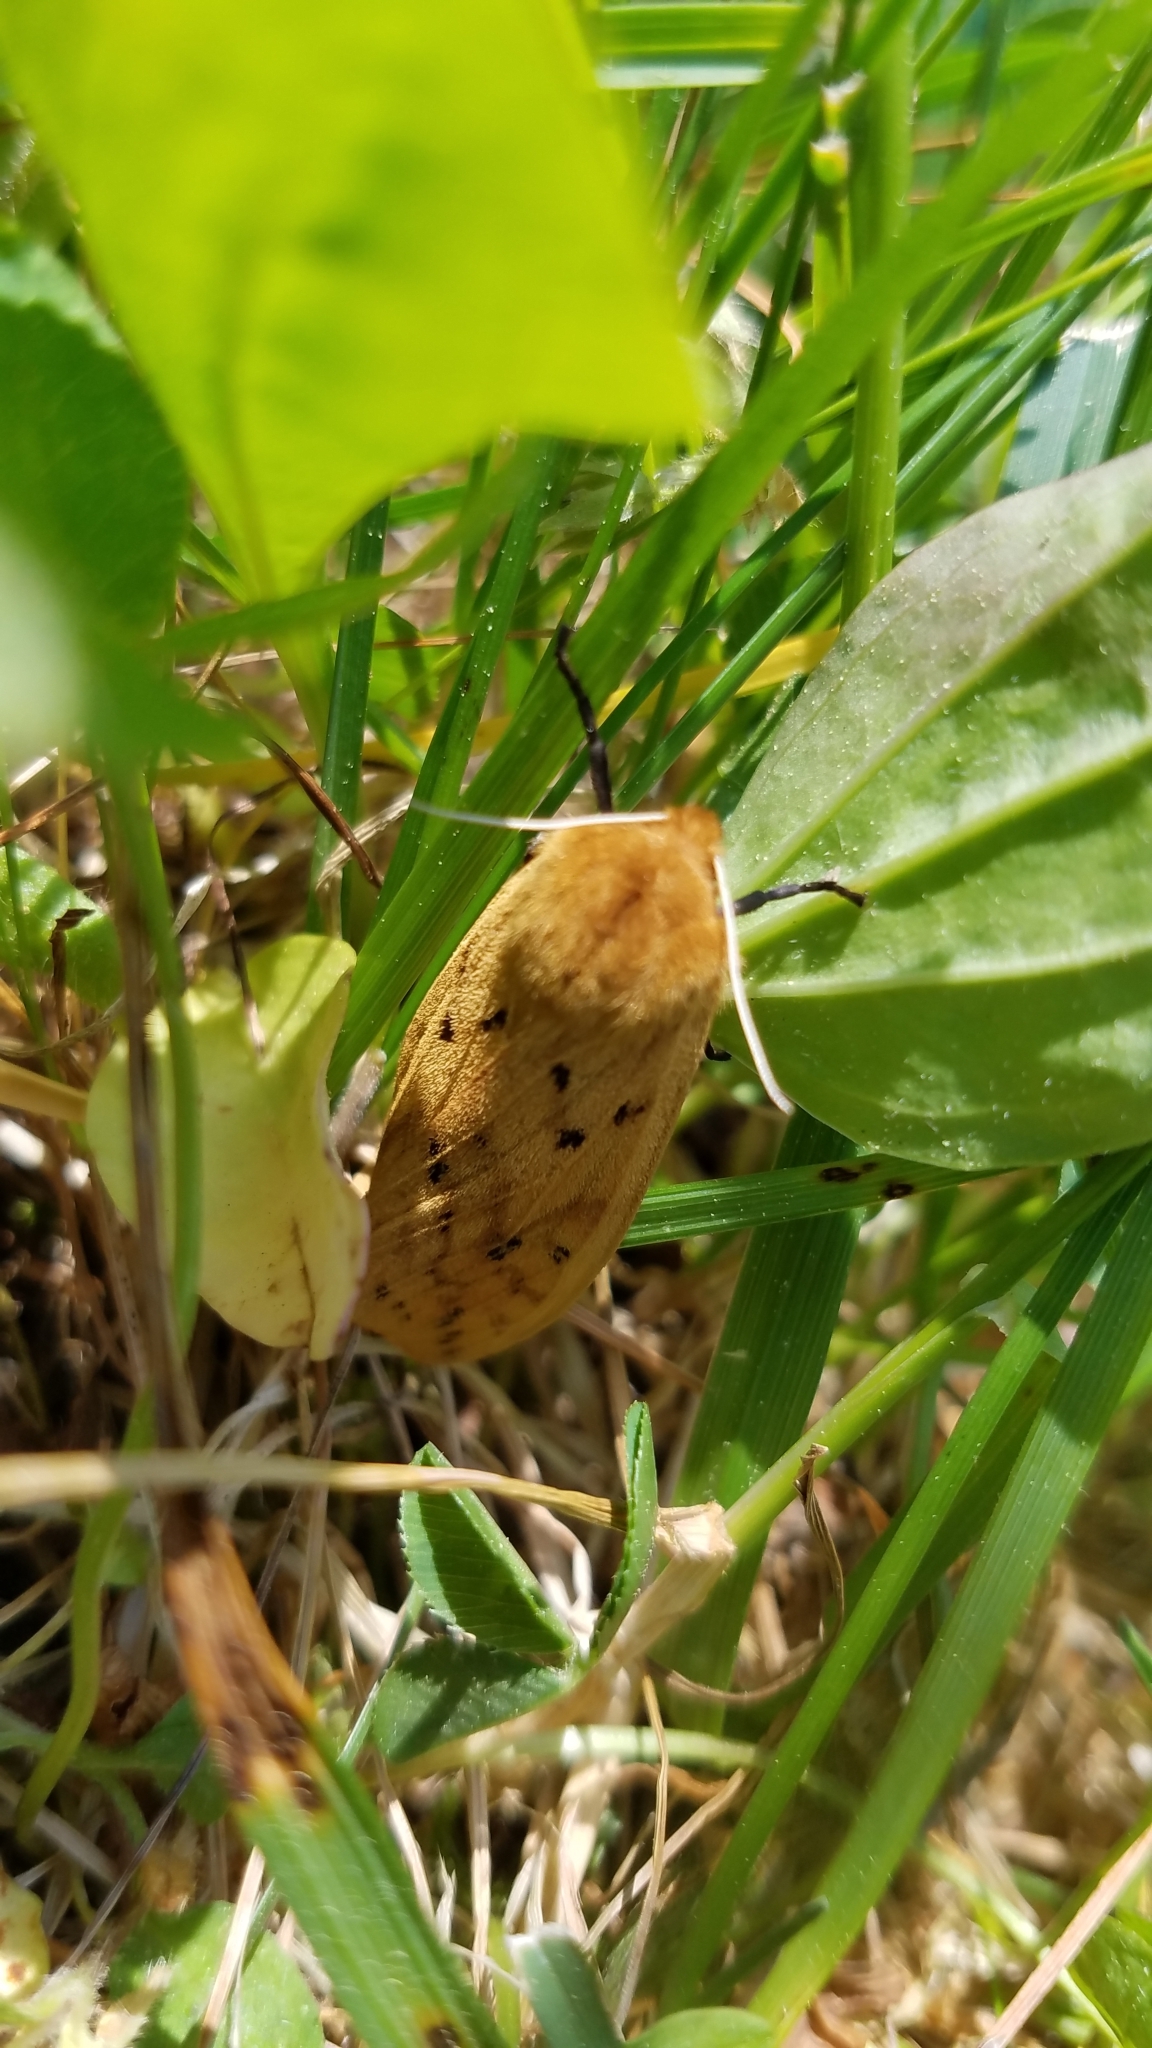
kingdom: Animalia
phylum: Arthropoda
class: Insecta
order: Lepidoptera
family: Erebidae
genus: Pyrrharctia
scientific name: Pyrrharctia isabella
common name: Isabella tiger moth
